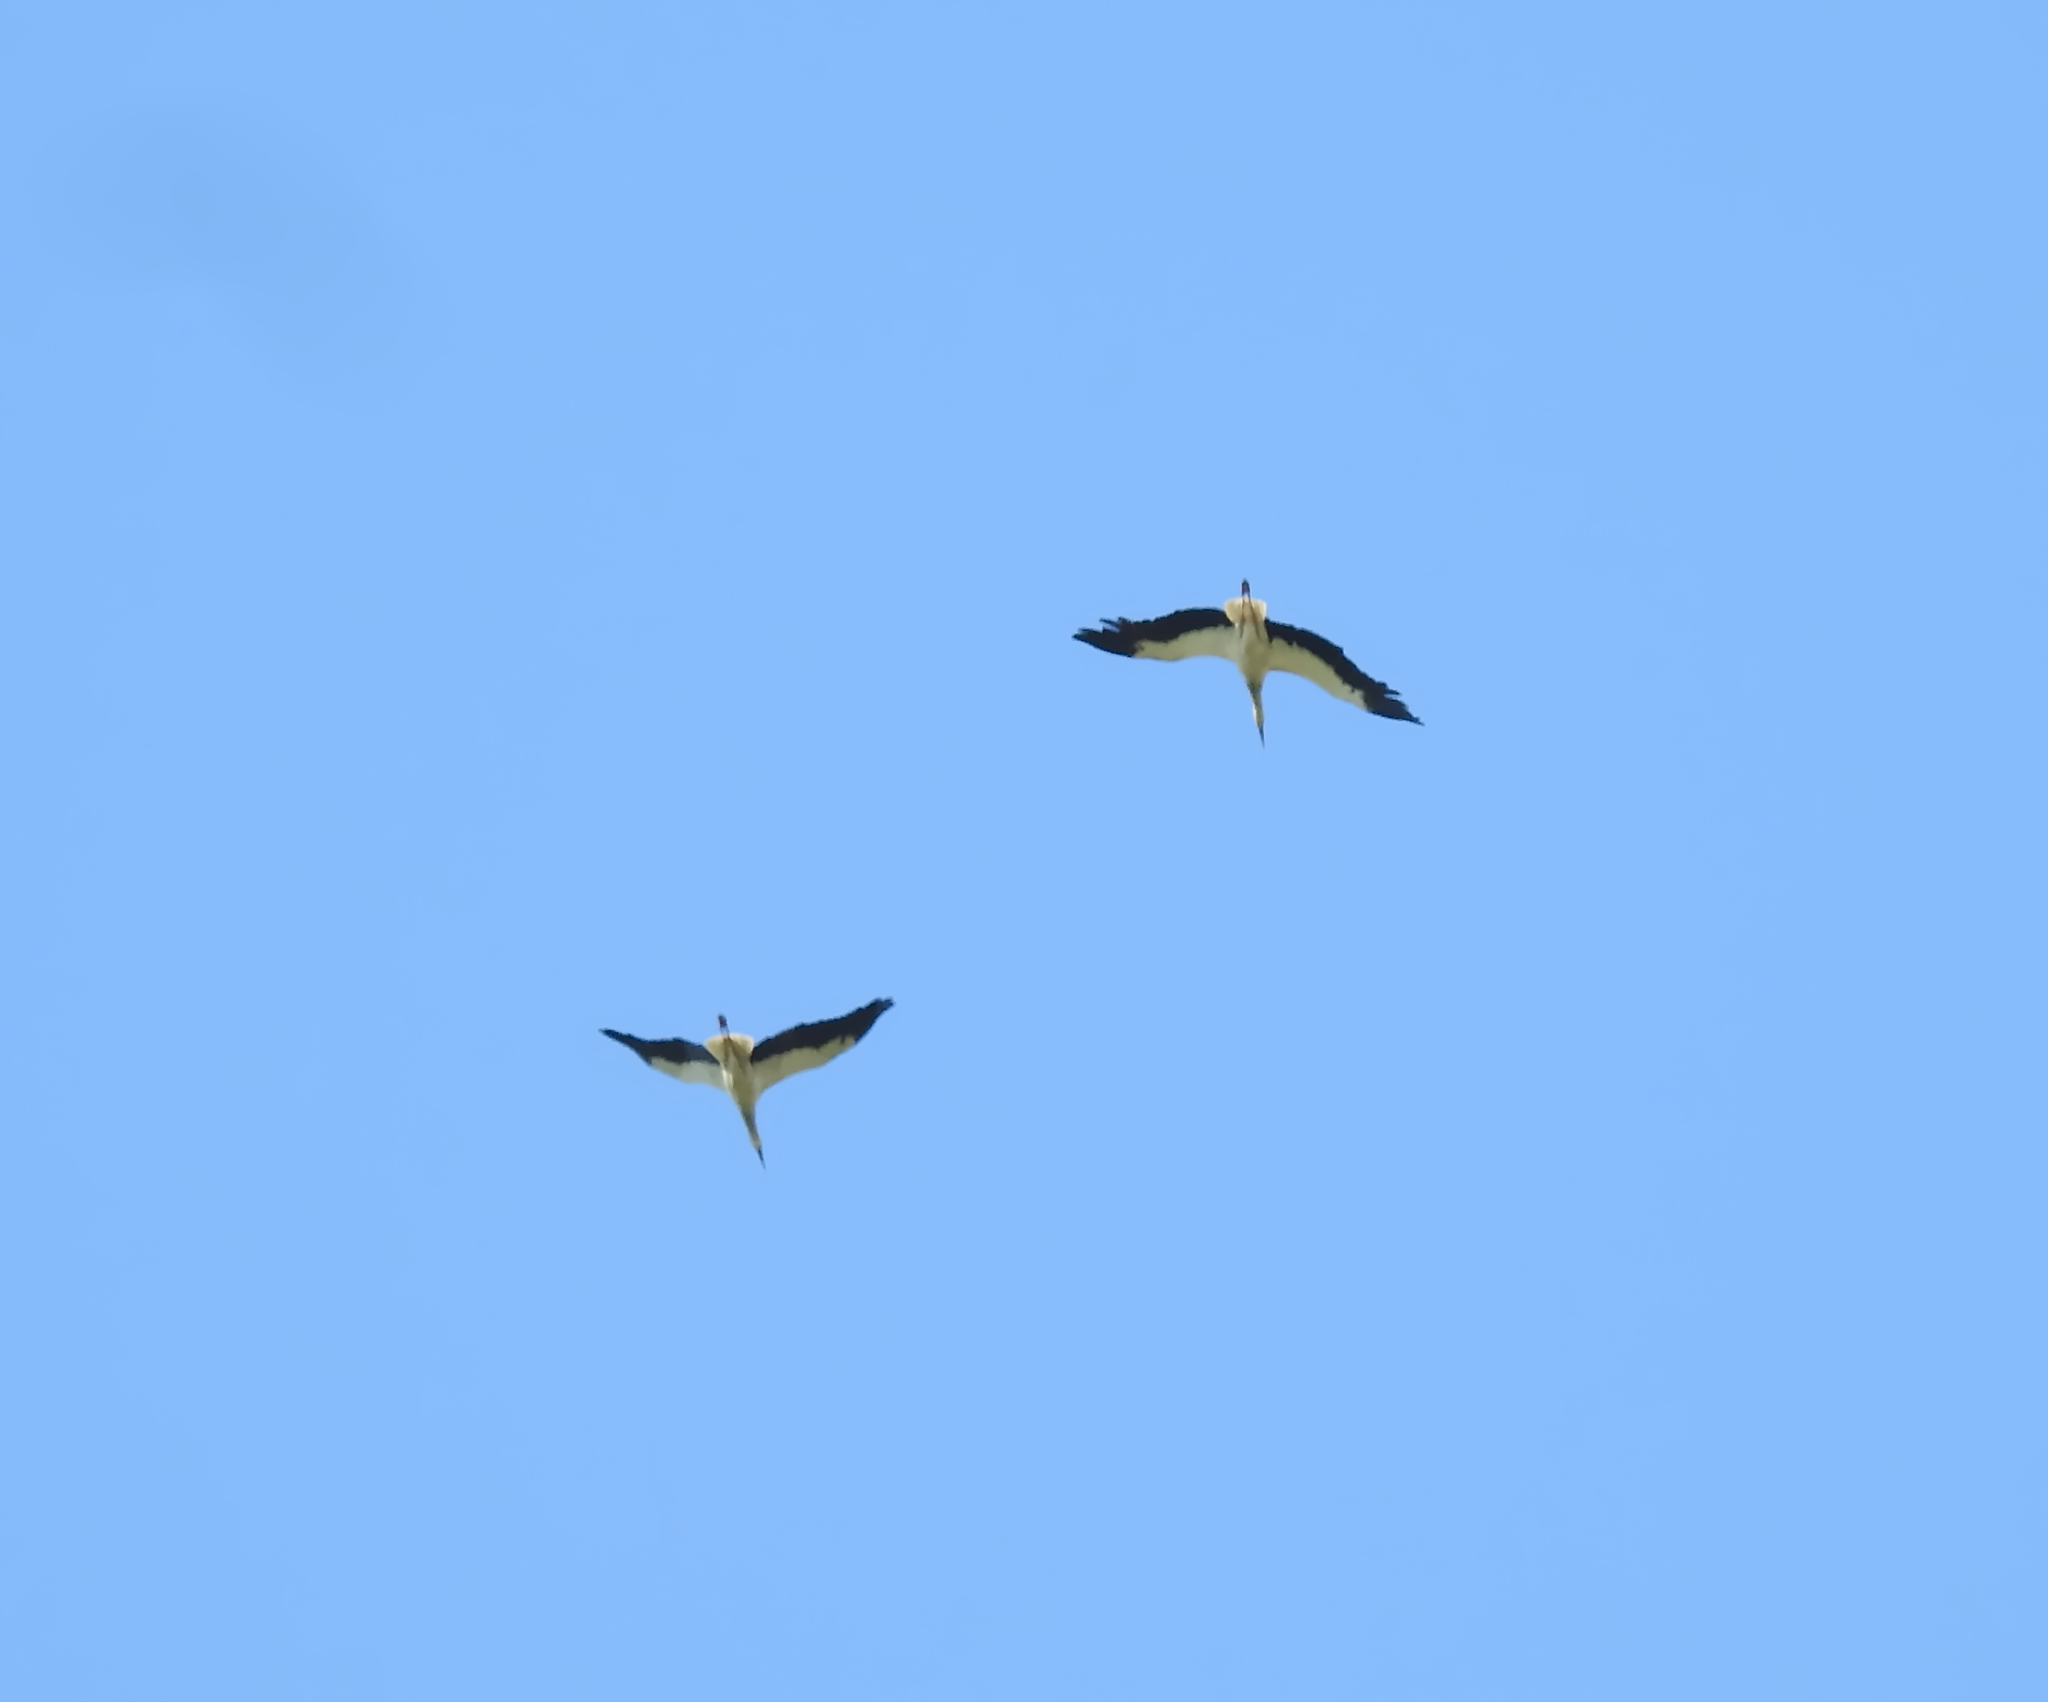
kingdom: Animalia
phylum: Chordata
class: Aves
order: Ciconiiformes
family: Ciconiidae
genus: Ciconia
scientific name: Ciconia ciconia
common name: White stork
